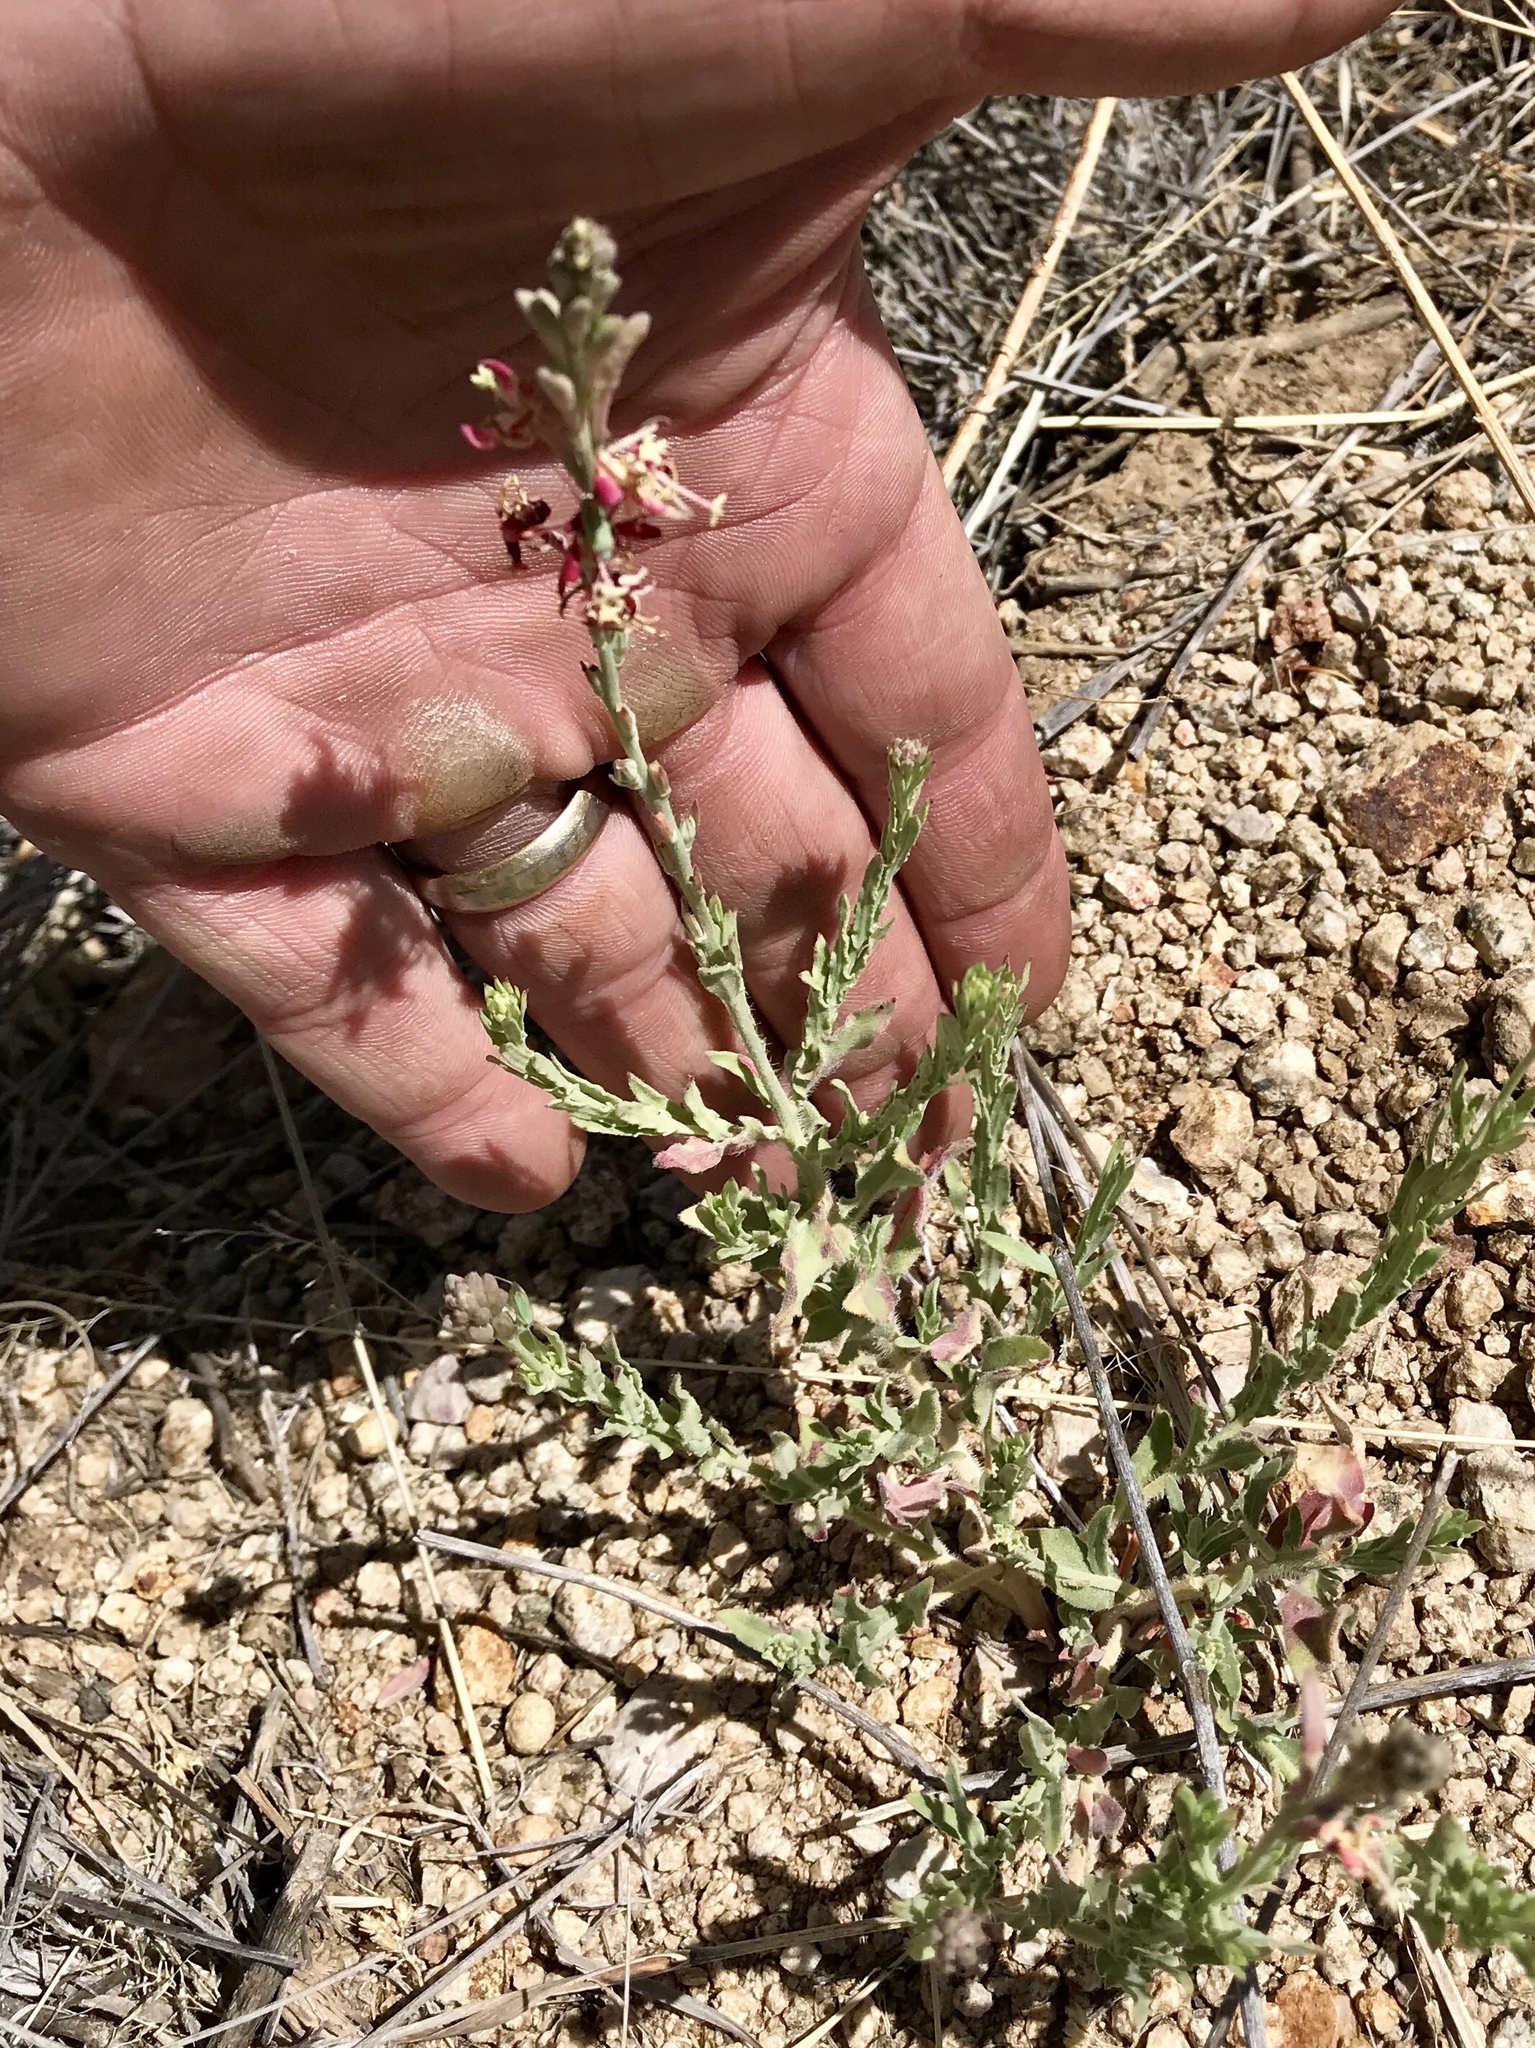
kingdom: Plantae
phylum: Tracheophyta
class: Magnoliopsida
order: Myrtales
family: Onagraceae
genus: Oenothera
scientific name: Oenothera suffrutescens
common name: Scarlet beeblossom
